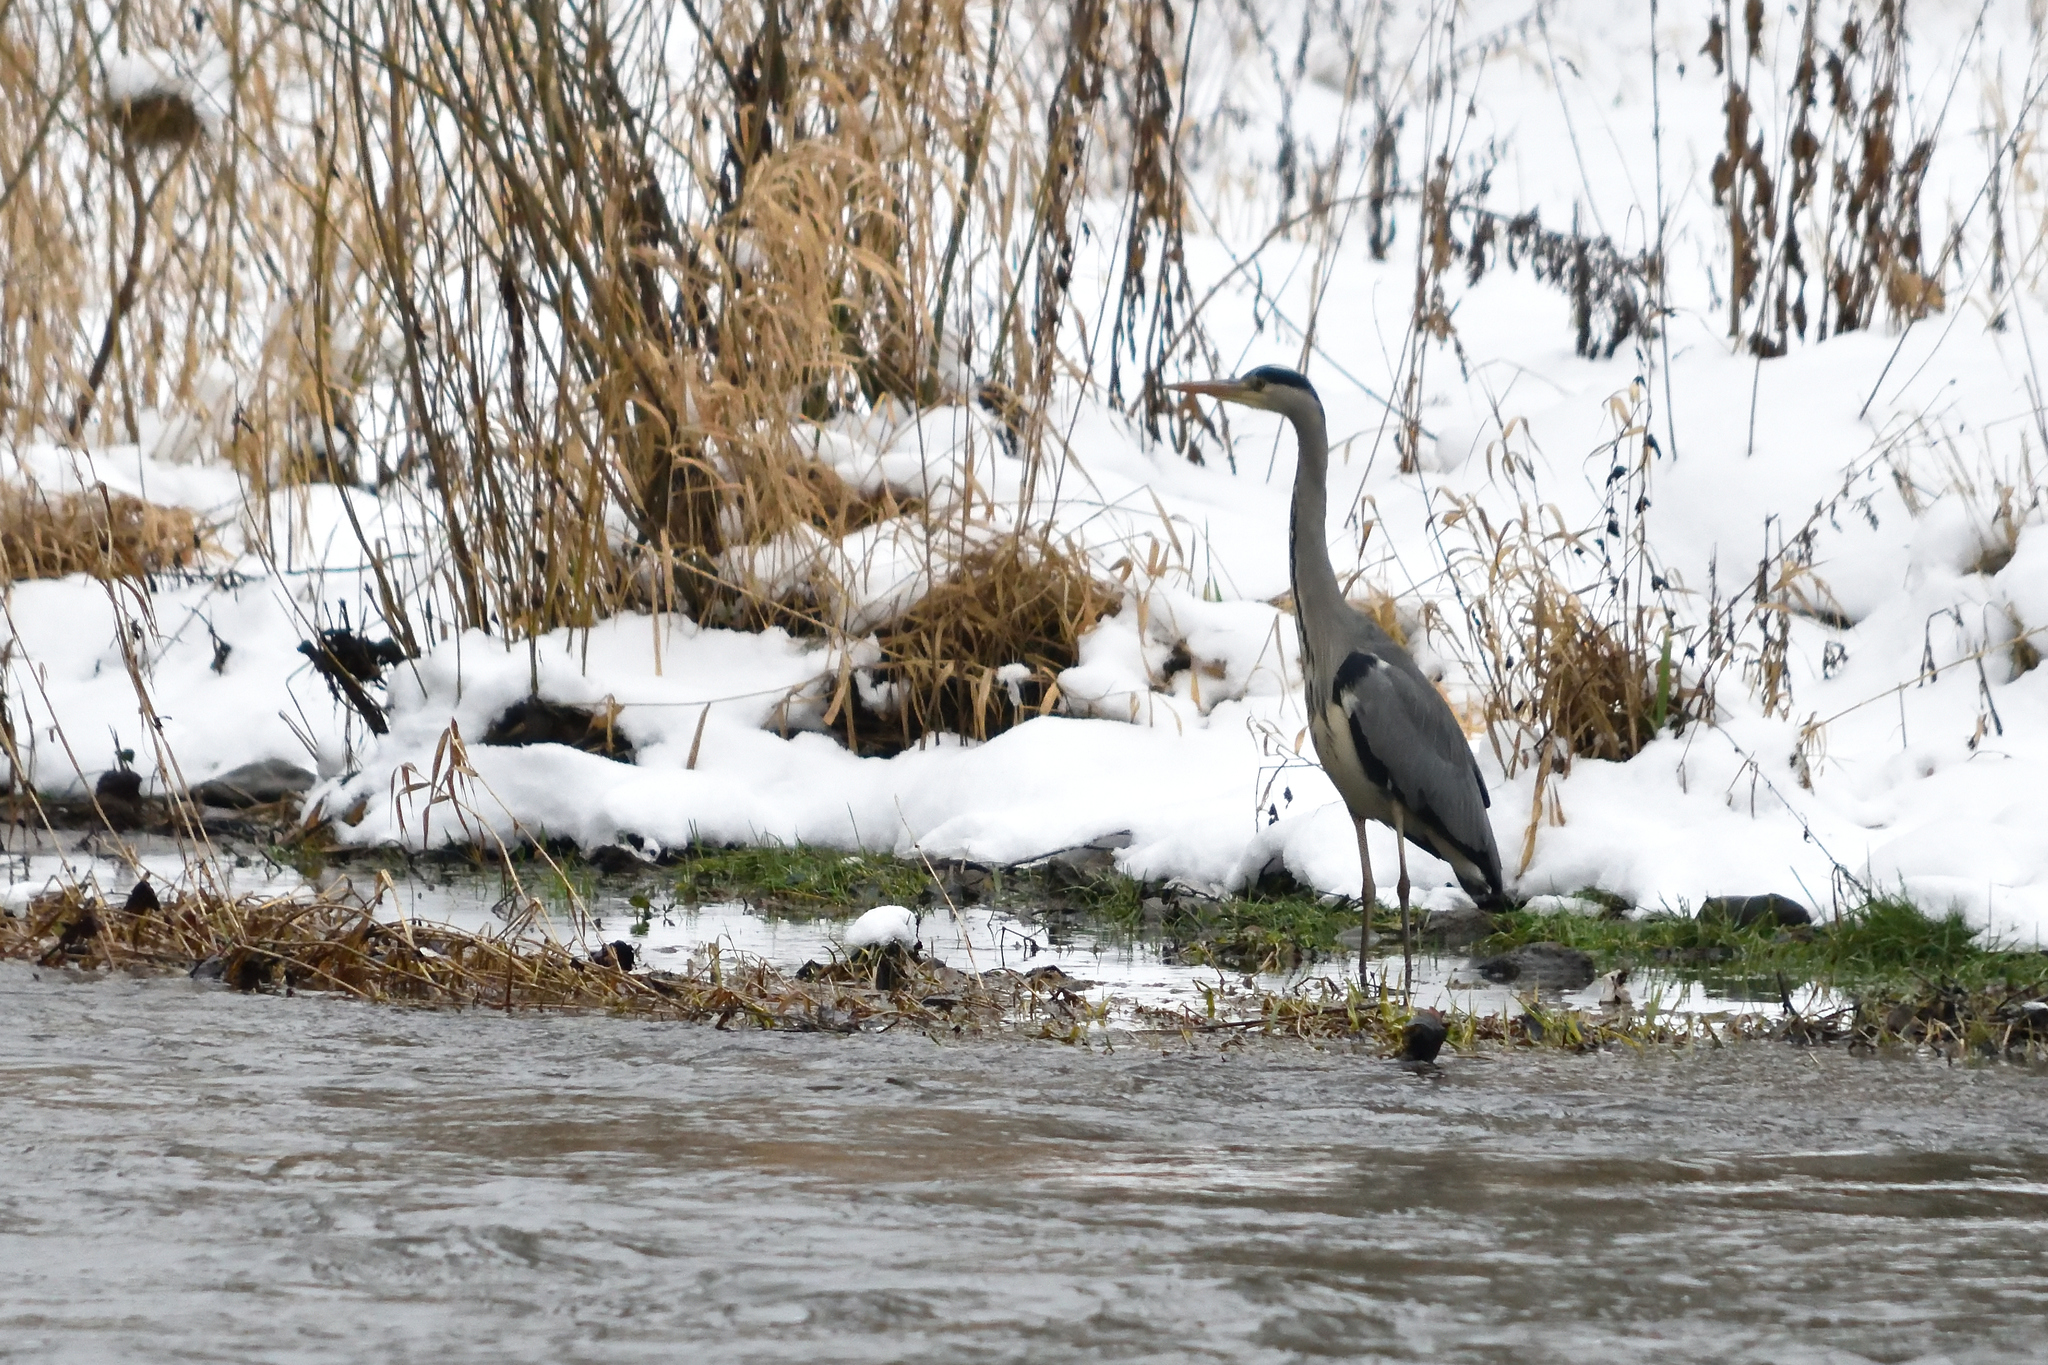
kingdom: Animalia
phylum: Chordata
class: Aves
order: Pelecaniformes
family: Ardeidae
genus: Ardea
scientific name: Ardea cinerea
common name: Grey heron
